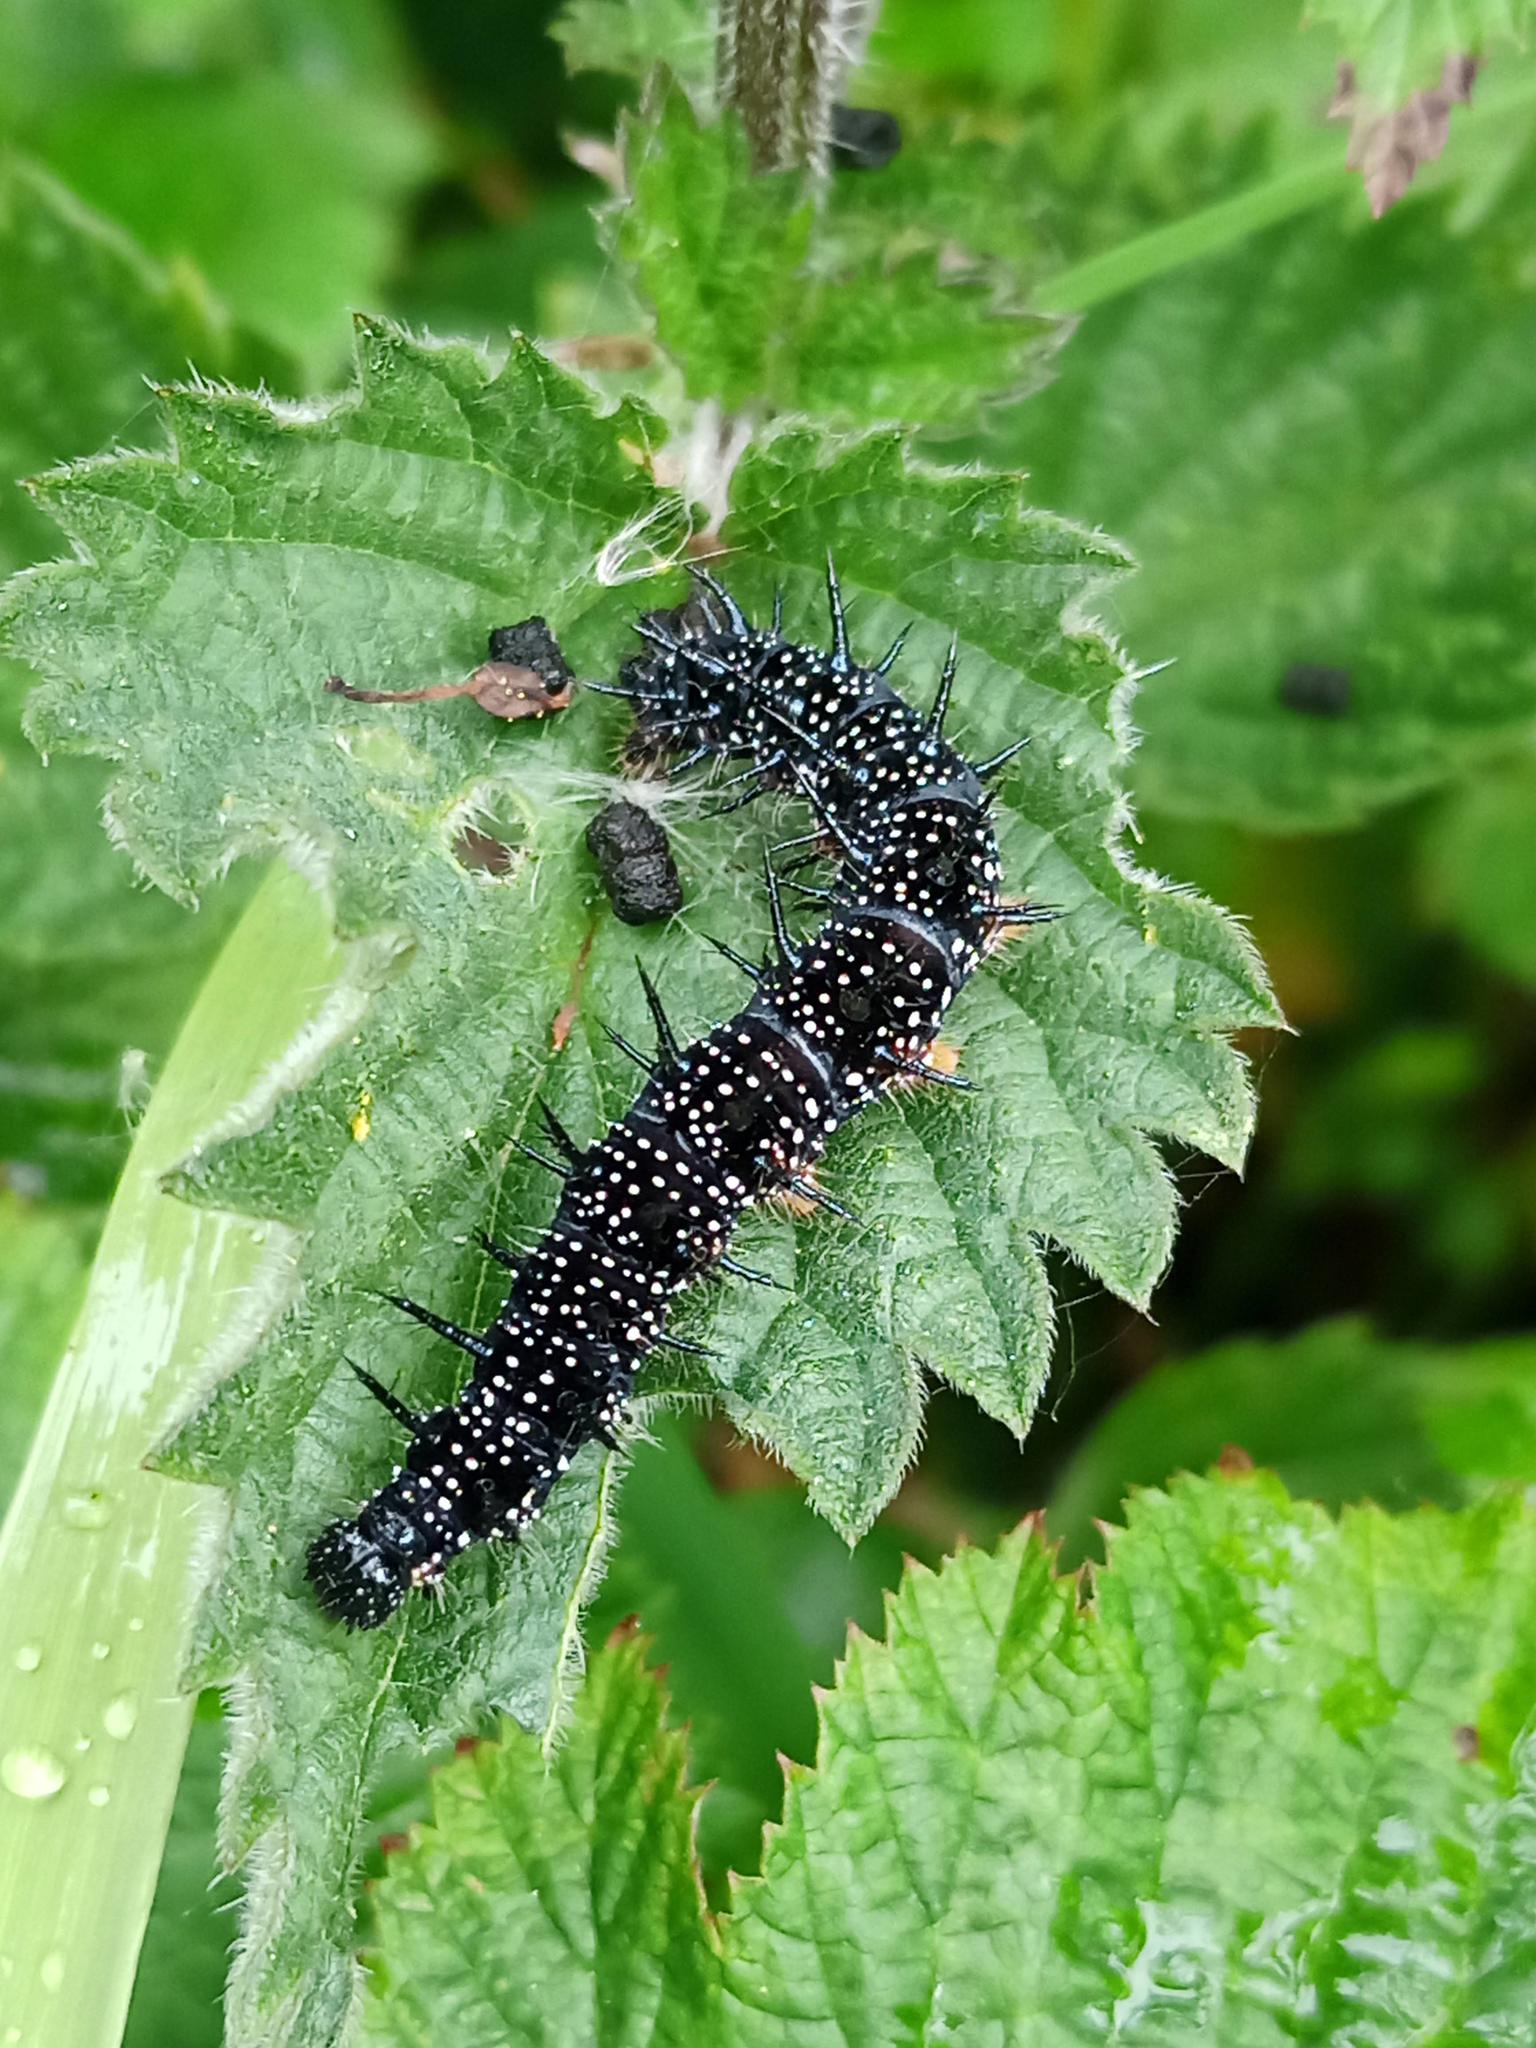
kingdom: Animalia
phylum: Arthropoda
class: Insecta
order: Lepidoptera
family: Nymphalidae
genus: Aglais
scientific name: Aglais io
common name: Peacock
